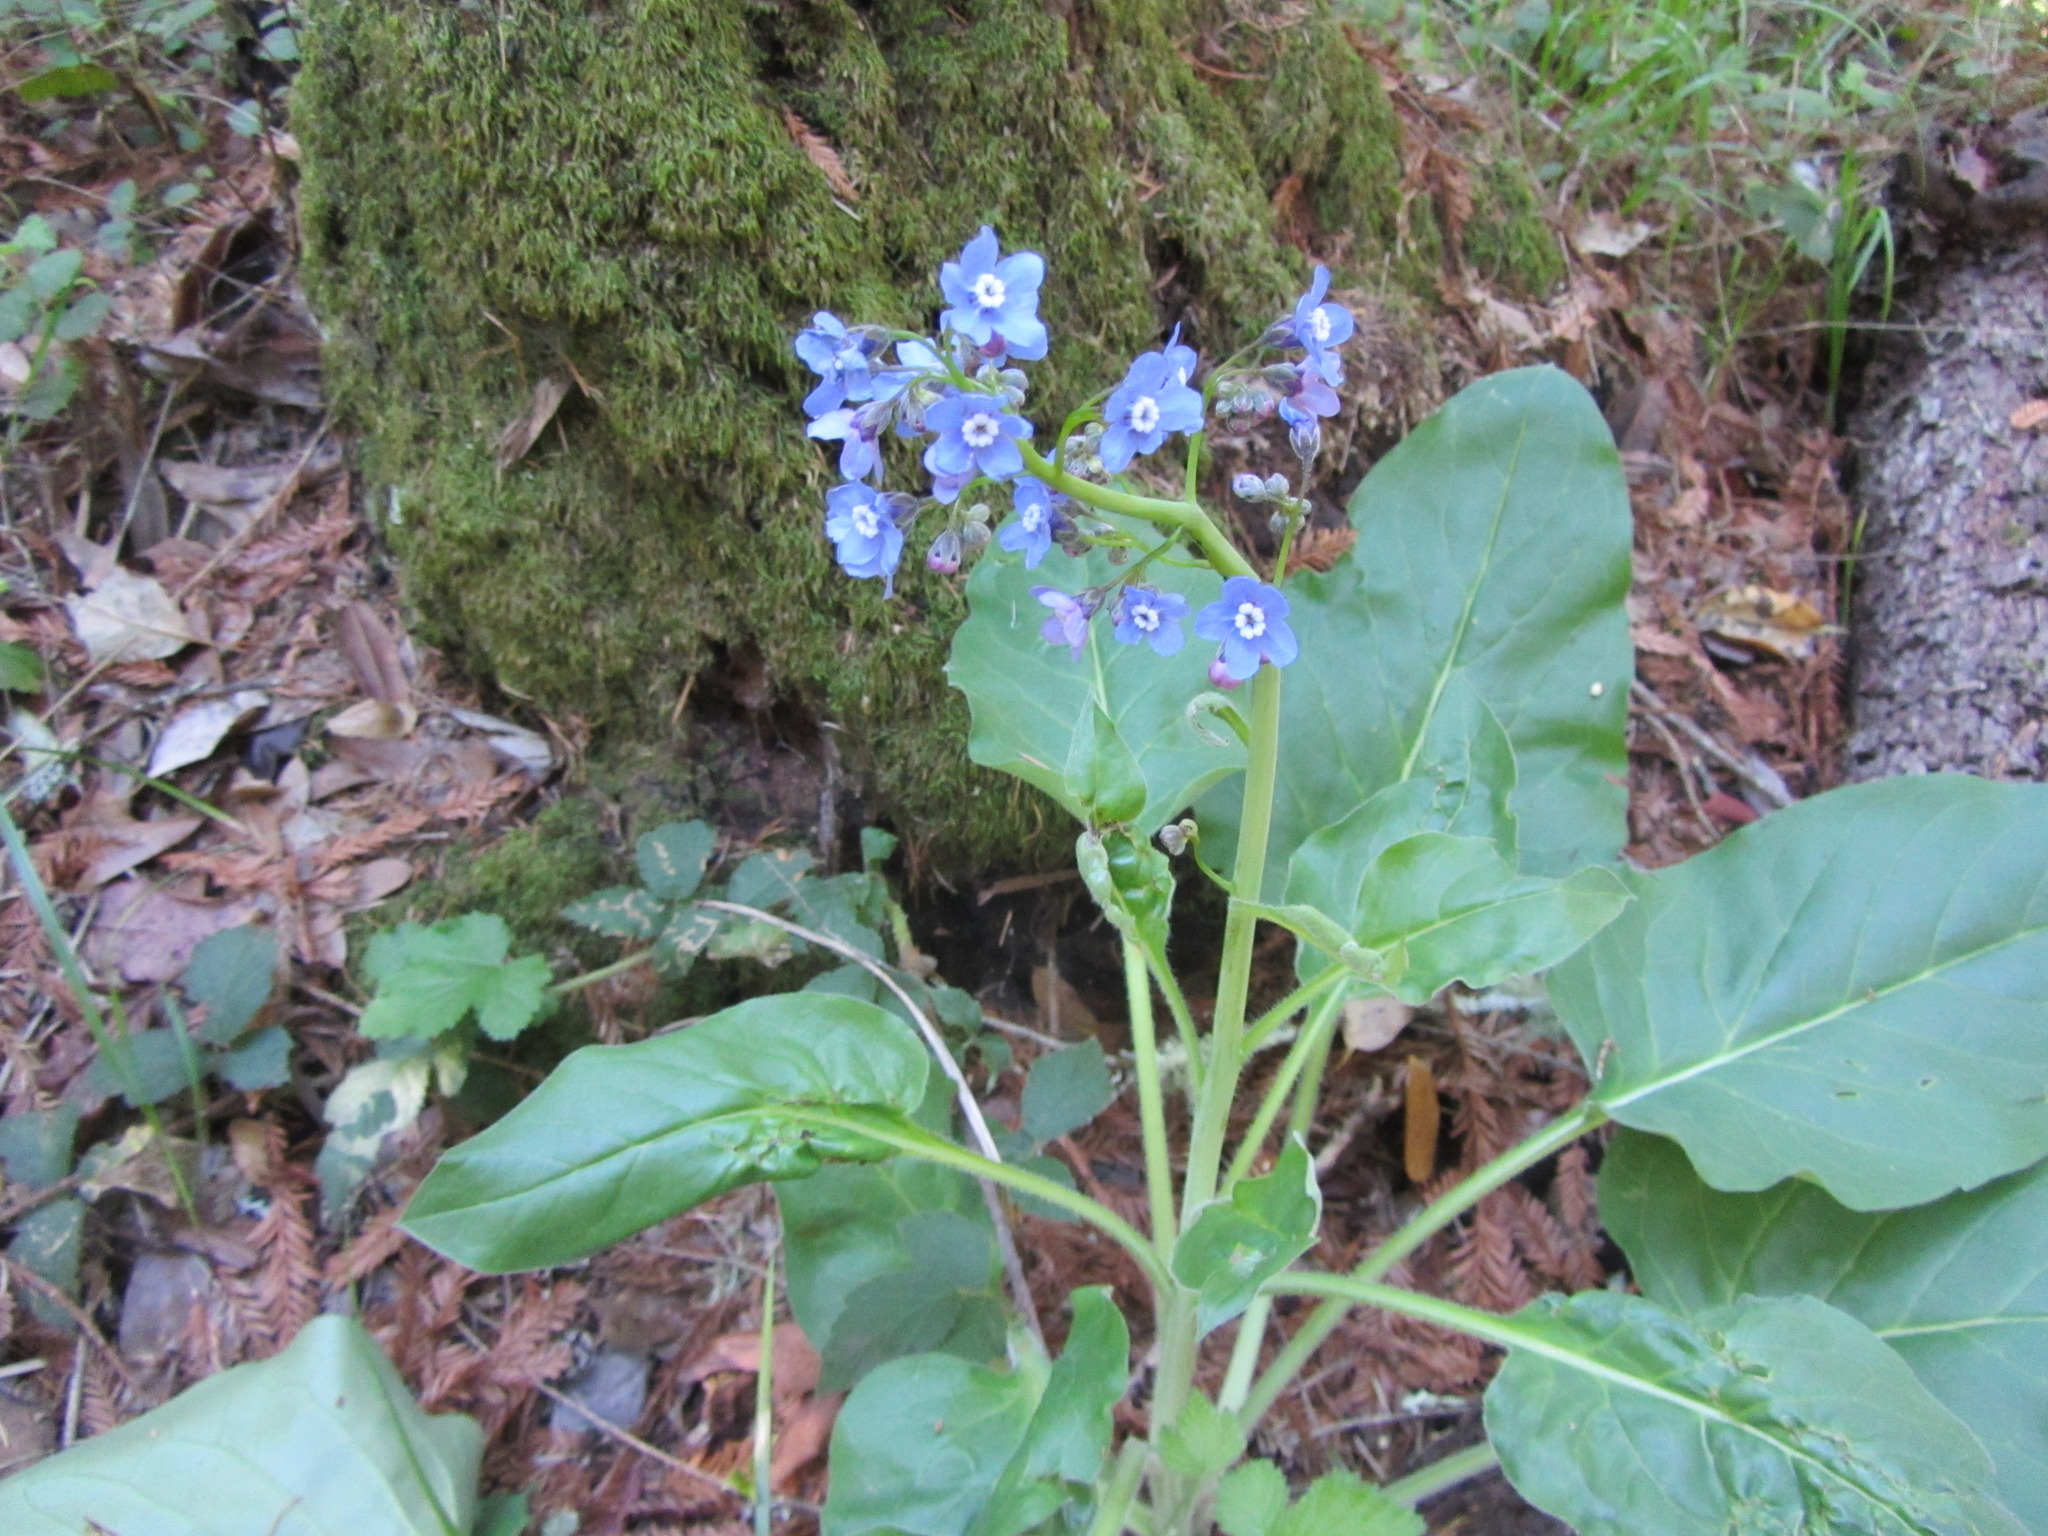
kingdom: Plantae
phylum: Tracheophyta
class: Magnoliopsida
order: Boraginales
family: Boraginaceae
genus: Adelinia
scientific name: Adelinia grande
